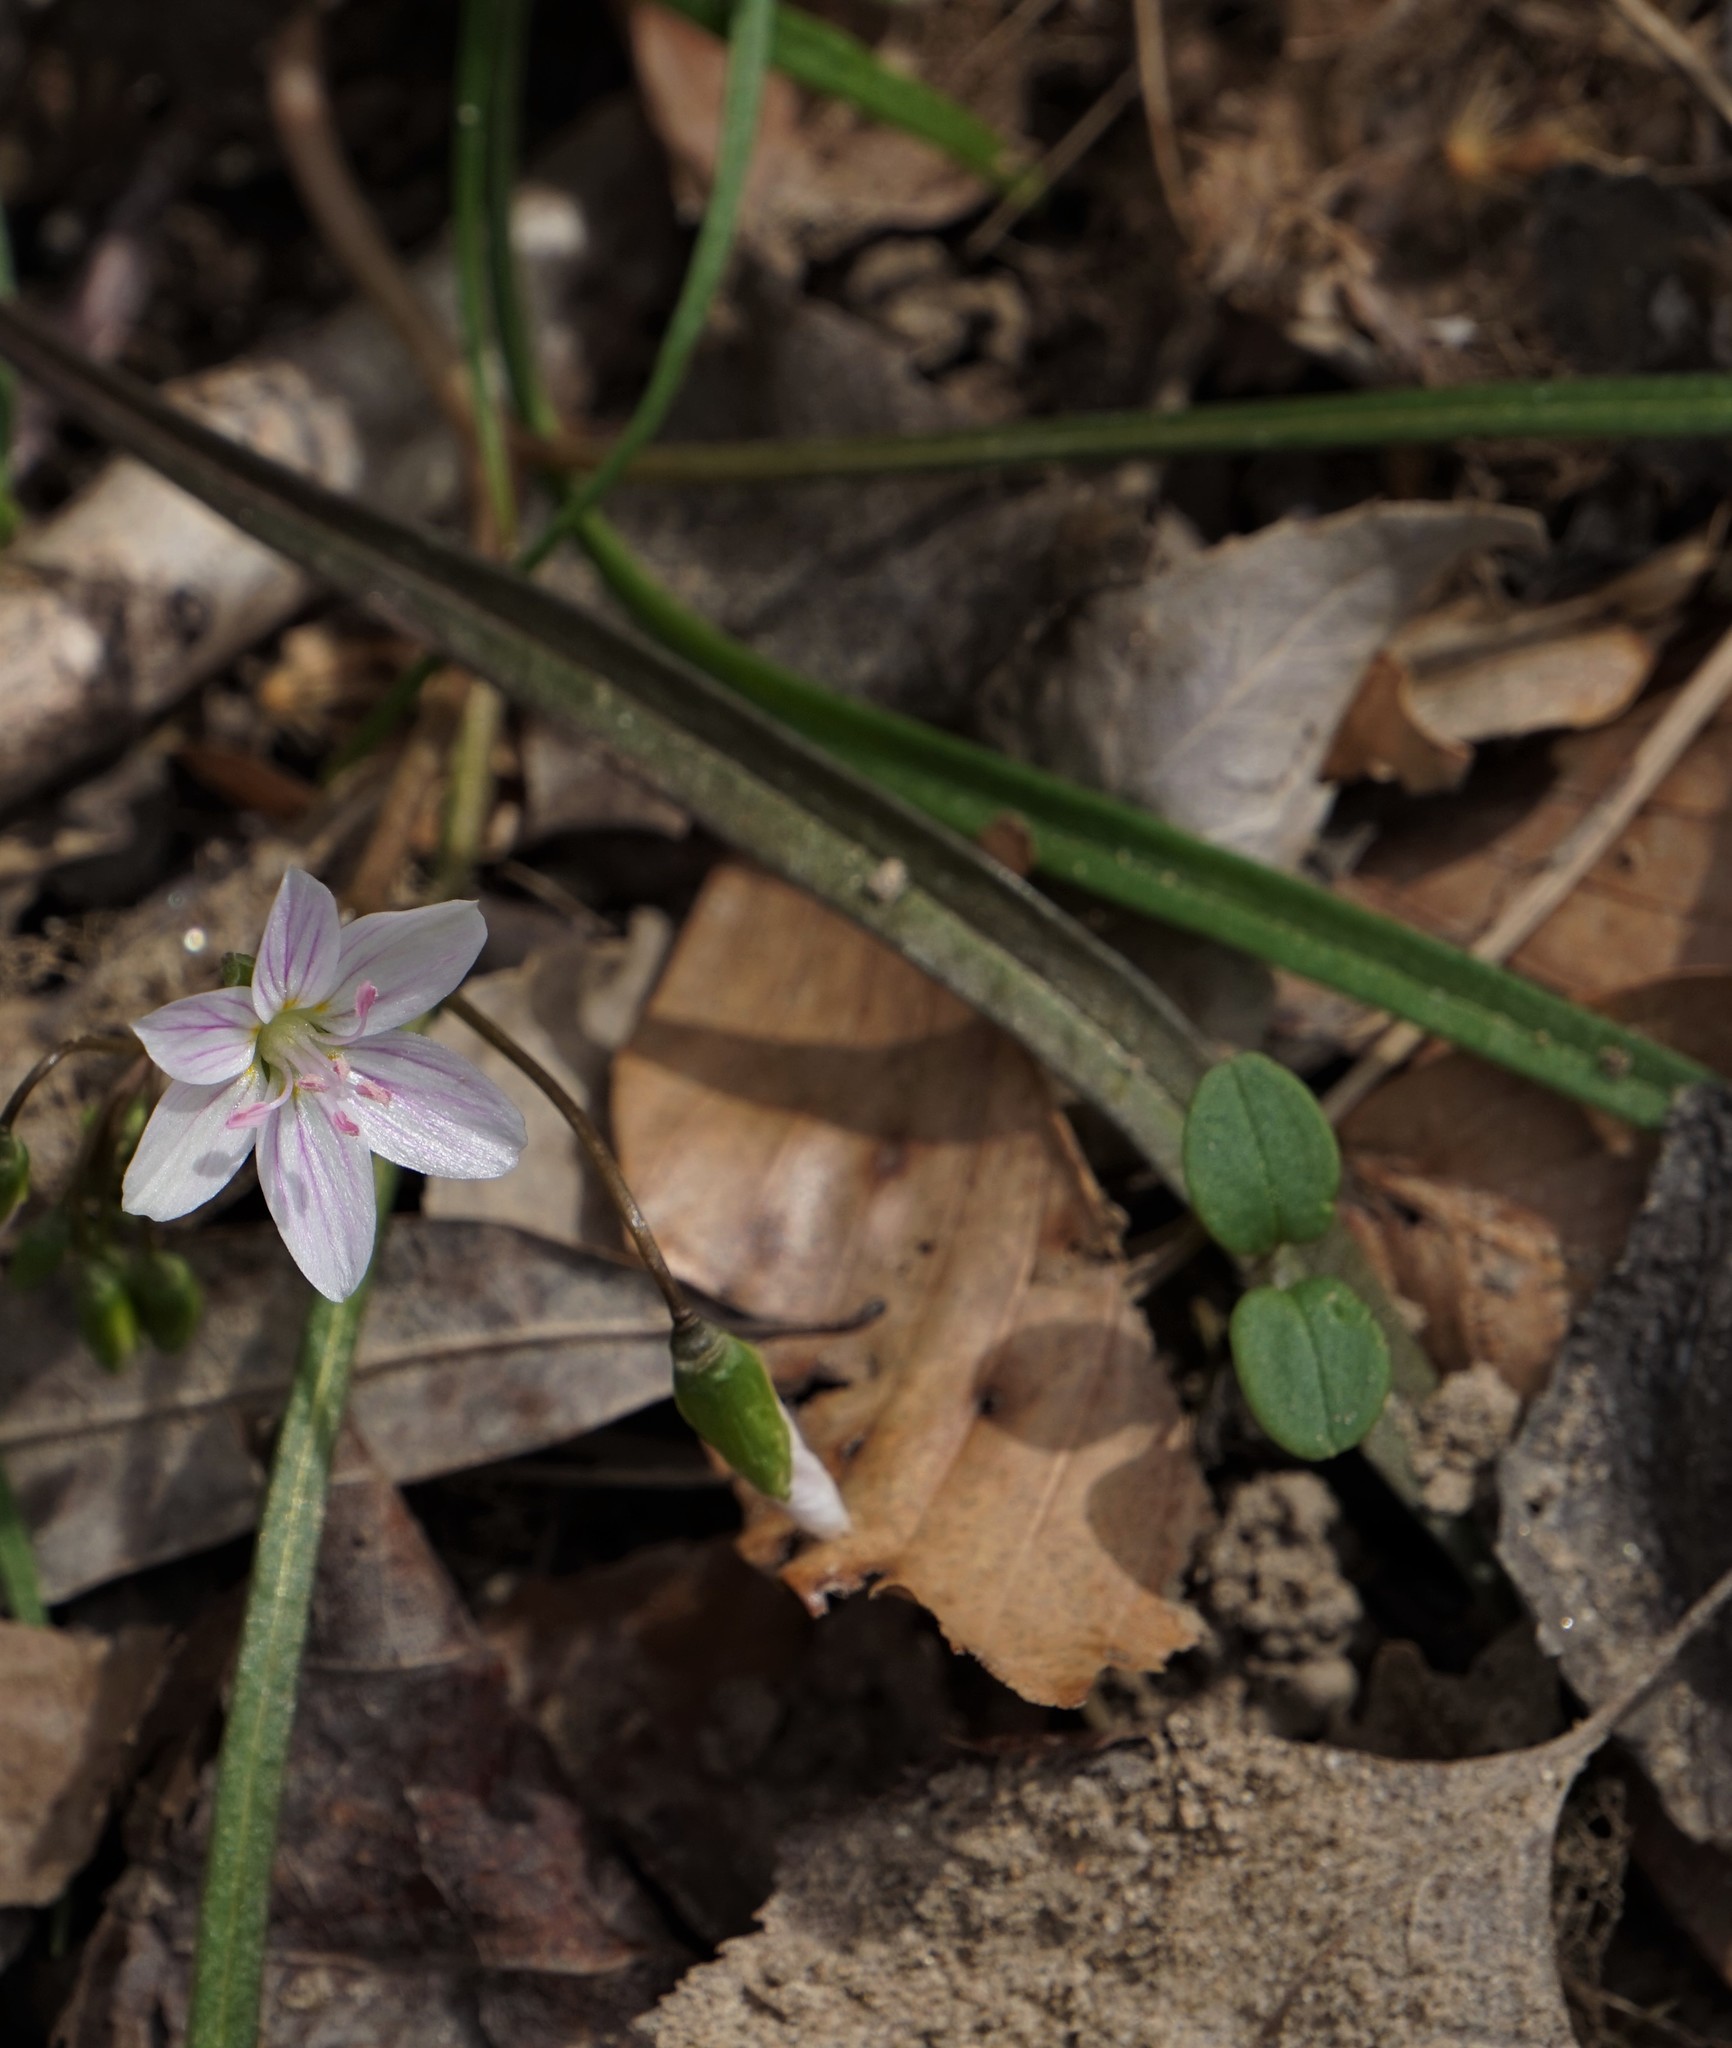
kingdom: Plantae
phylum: Tracheophyta
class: Magnoliopsida
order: Caryophyllales
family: Montiaceae
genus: Claytonia
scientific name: Claytonia virginica
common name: Virginia springbeauty
